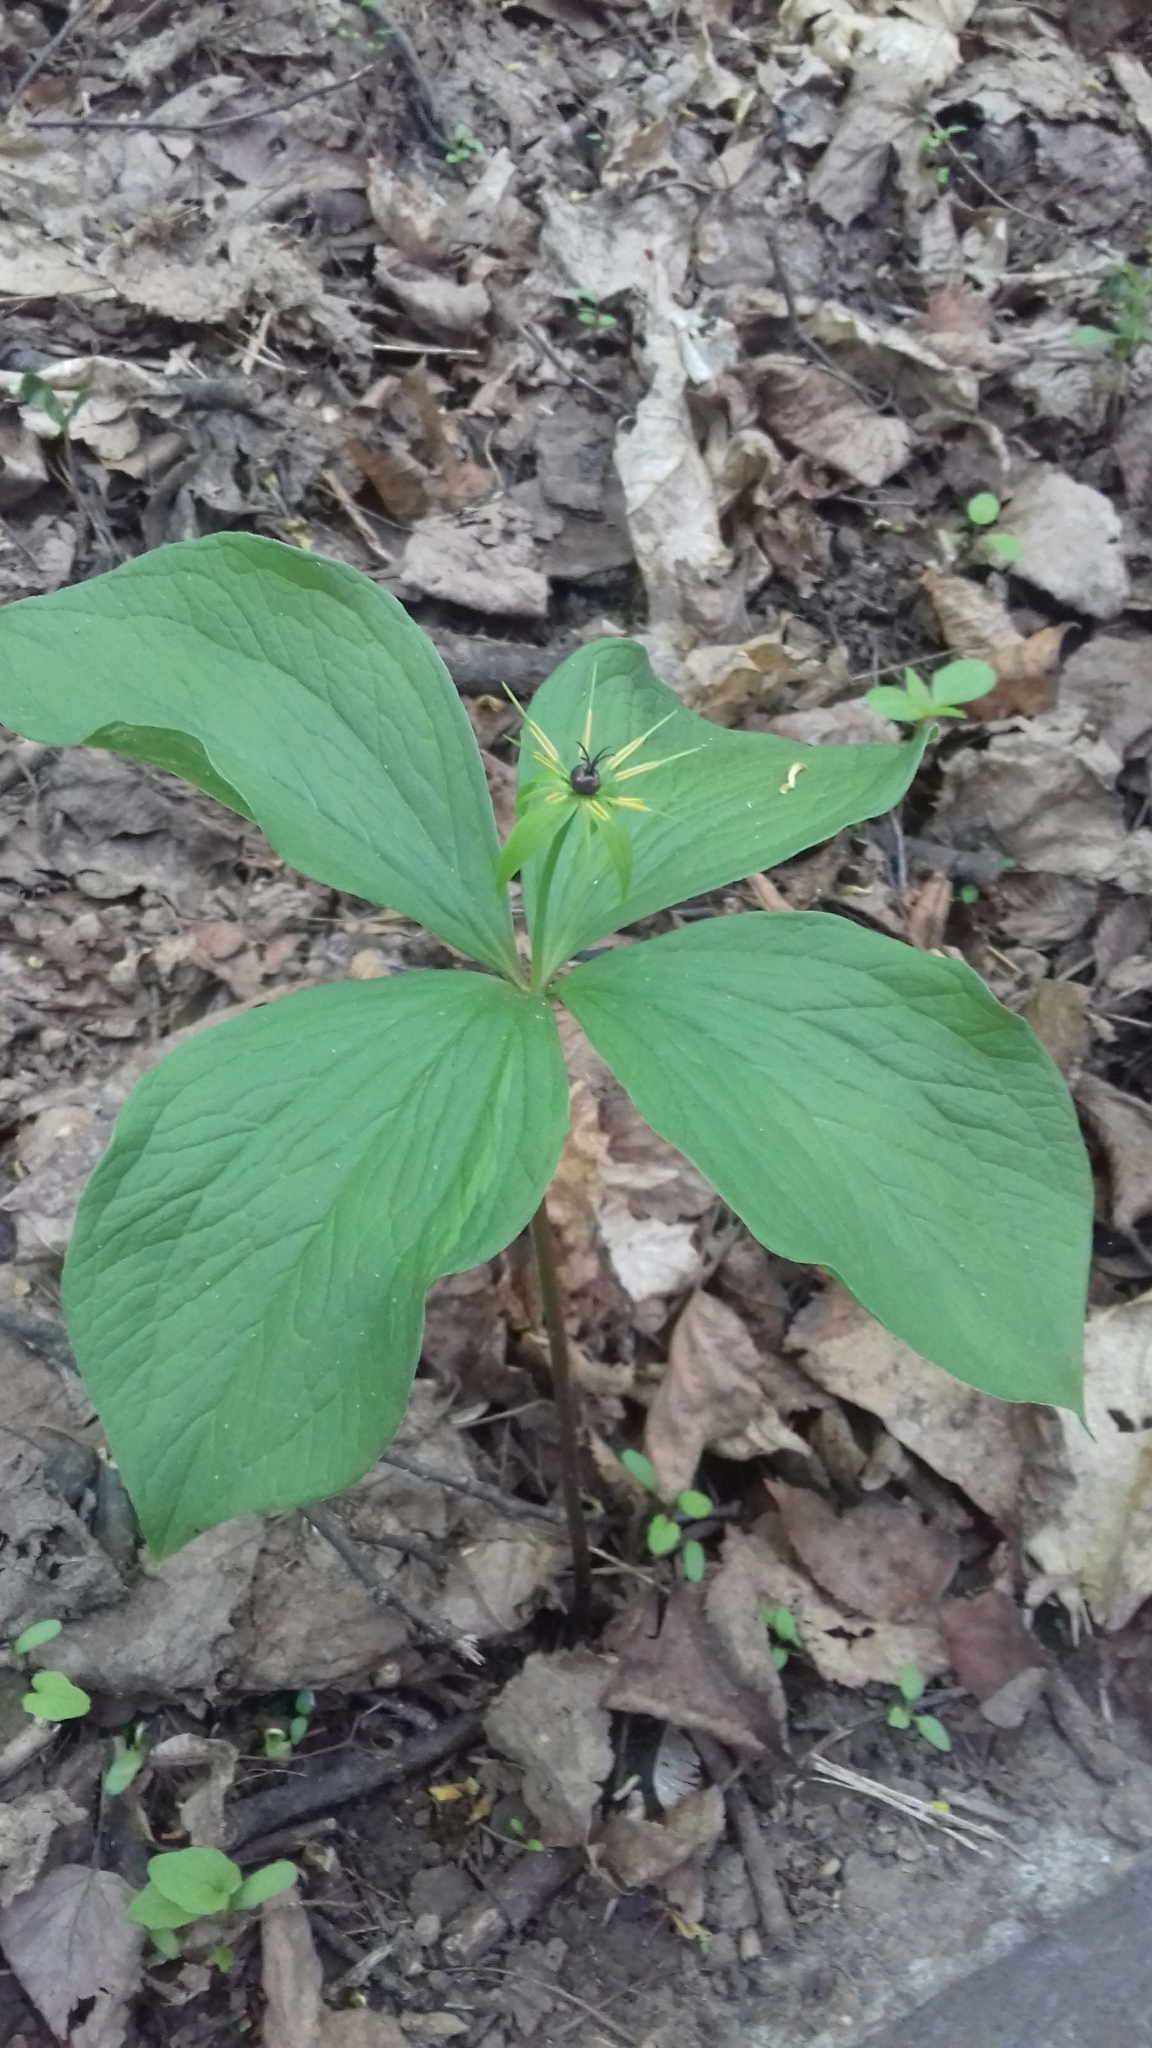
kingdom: Plantae
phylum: Tracheophyta
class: Liliopsida
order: Liliales
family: Melanthiaceae
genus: Paris
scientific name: Paris quadrifolia
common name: Herb-paris
